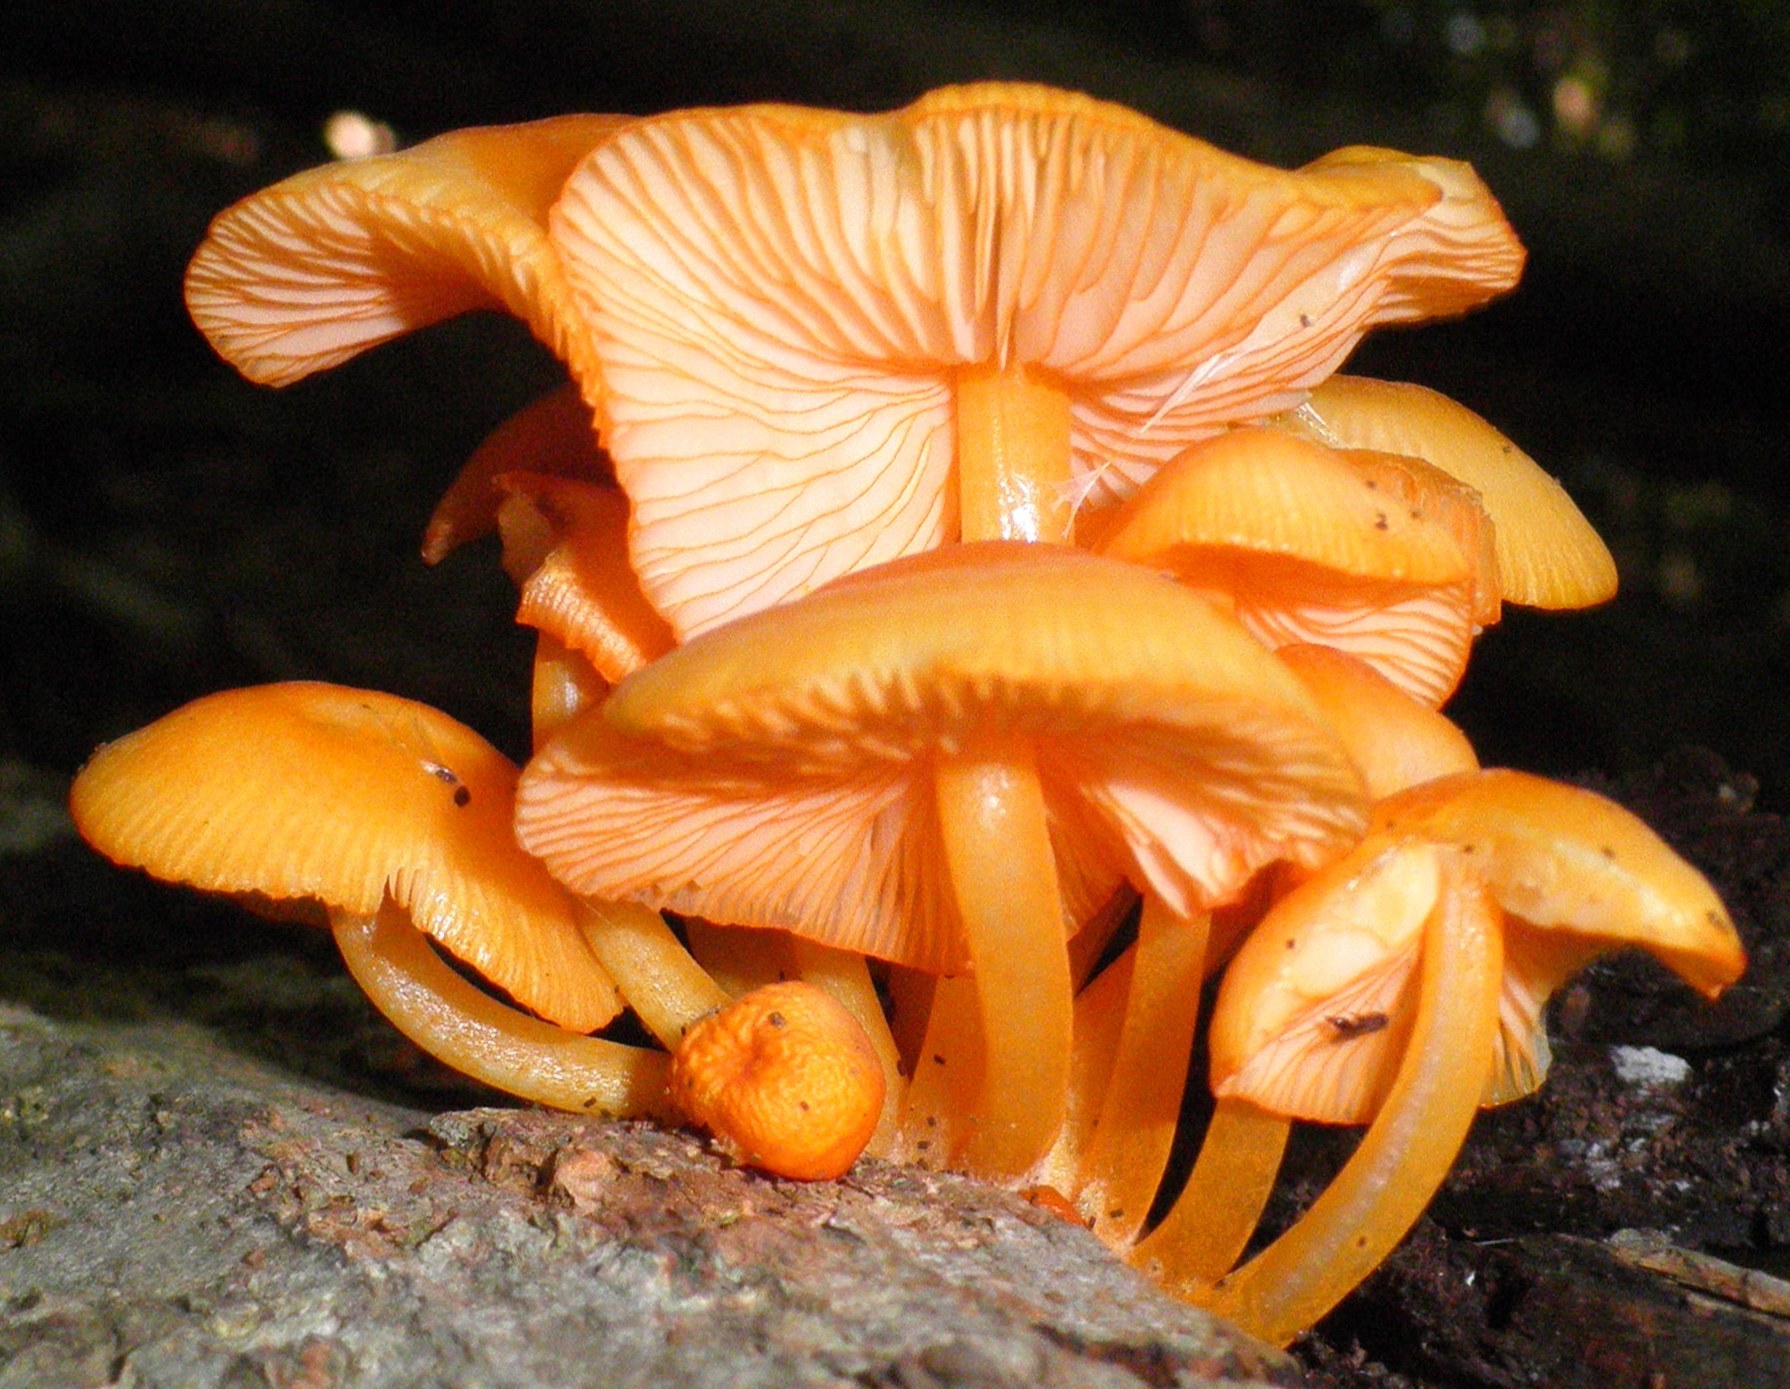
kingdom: Fungi
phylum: Basidiomycota
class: Agaricomycetes
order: Agaricales
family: Mycenaceae
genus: Mycena
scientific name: Mycena leaiana
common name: Orange mycena
